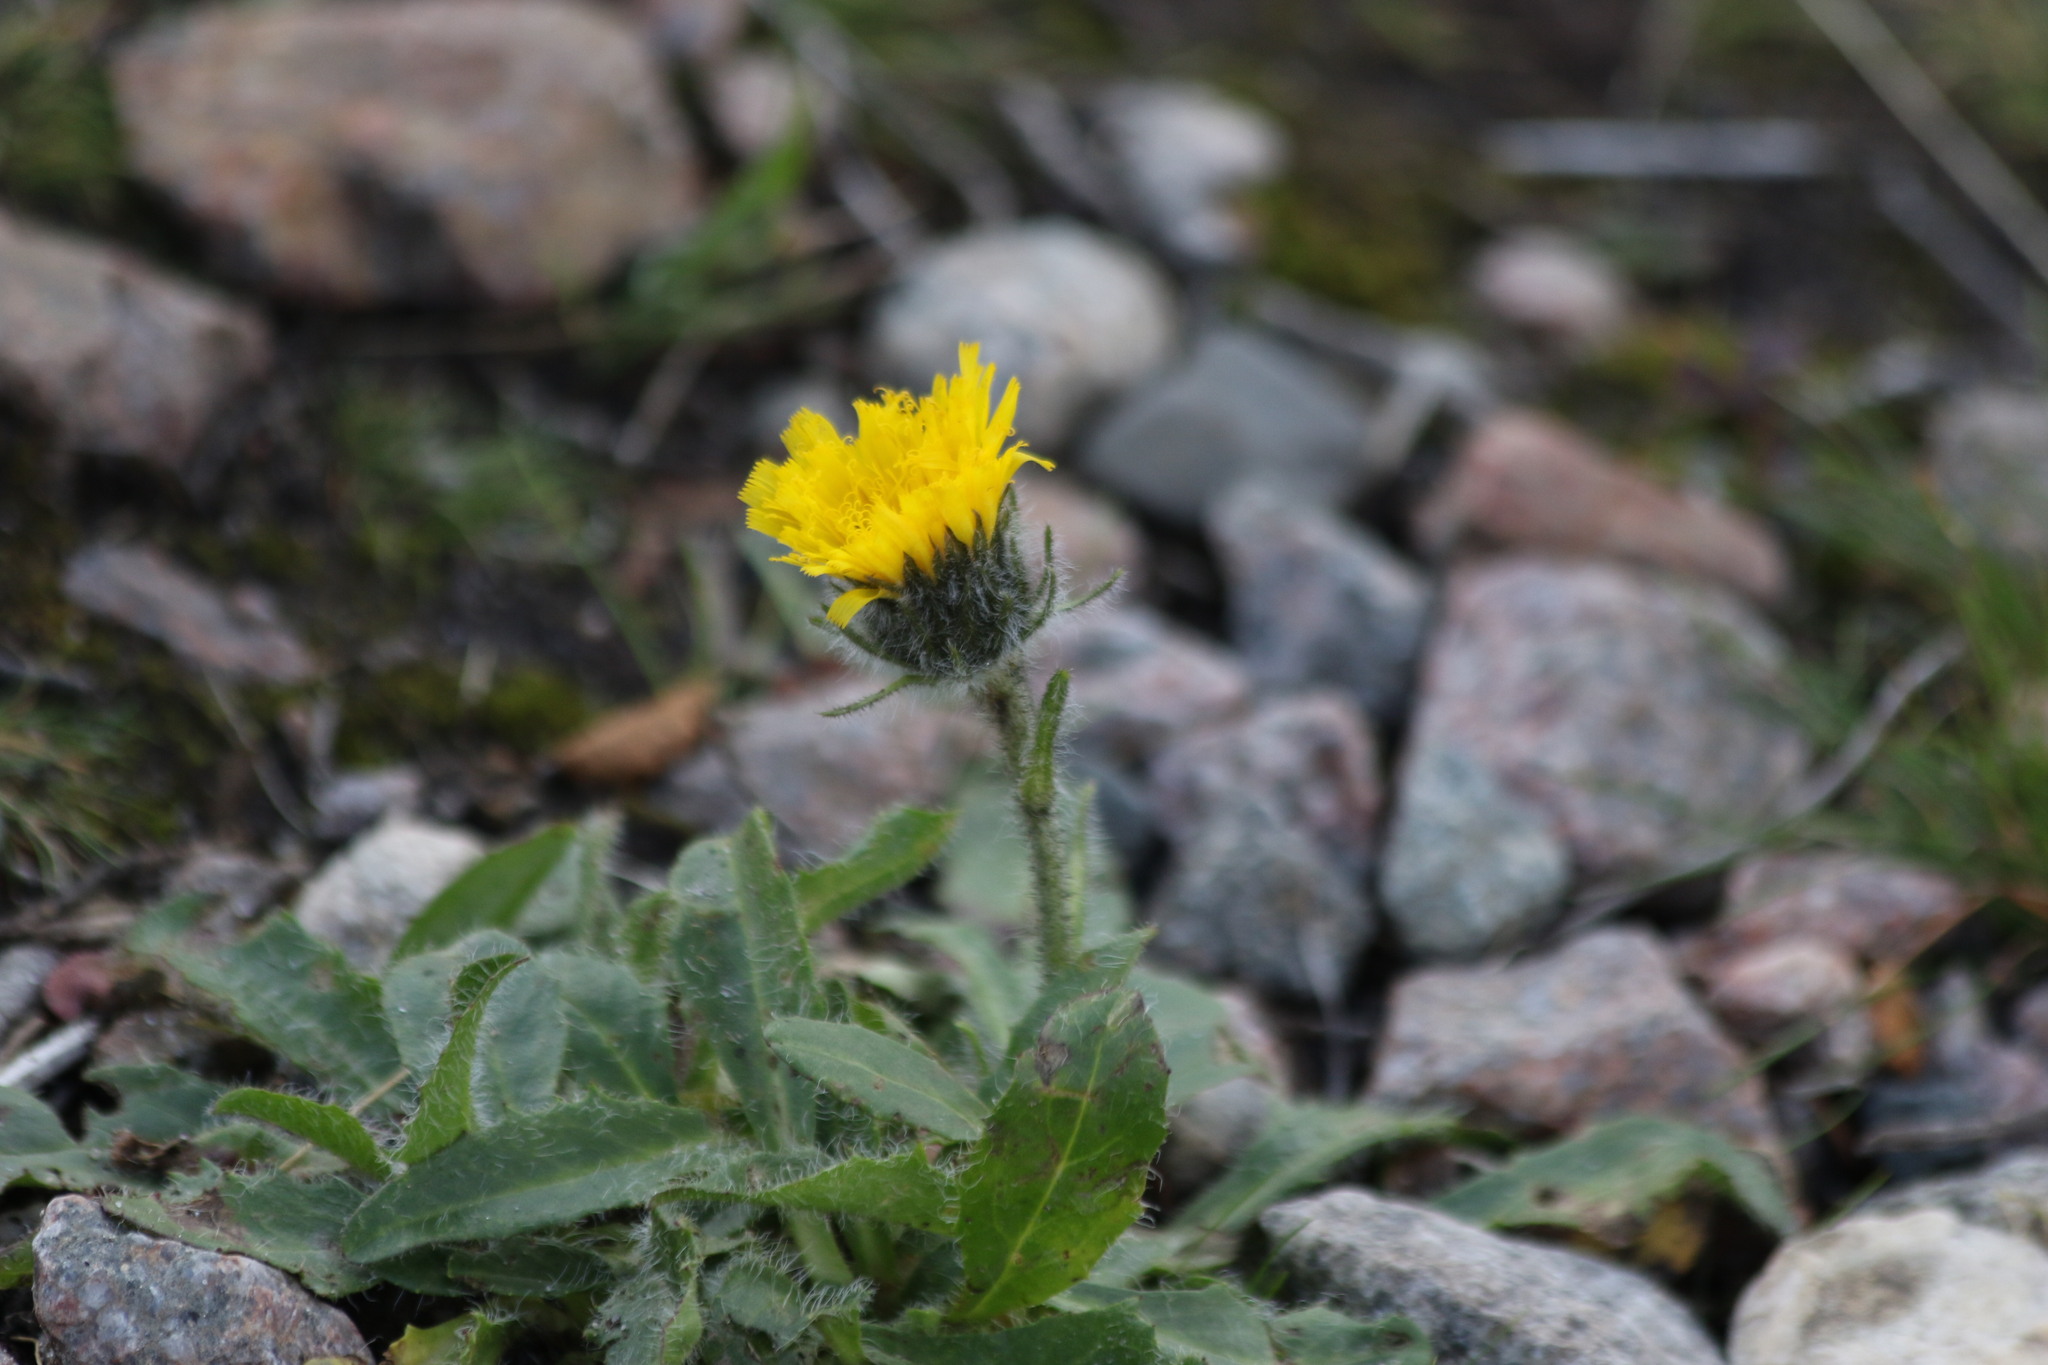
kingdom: Plantae
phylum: Tracheophyta
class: Magnoliopsida
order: Asterales
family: Asteraceae
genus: Hieracium
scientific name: Hieracium alpinum
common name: Alpine hawkweed
